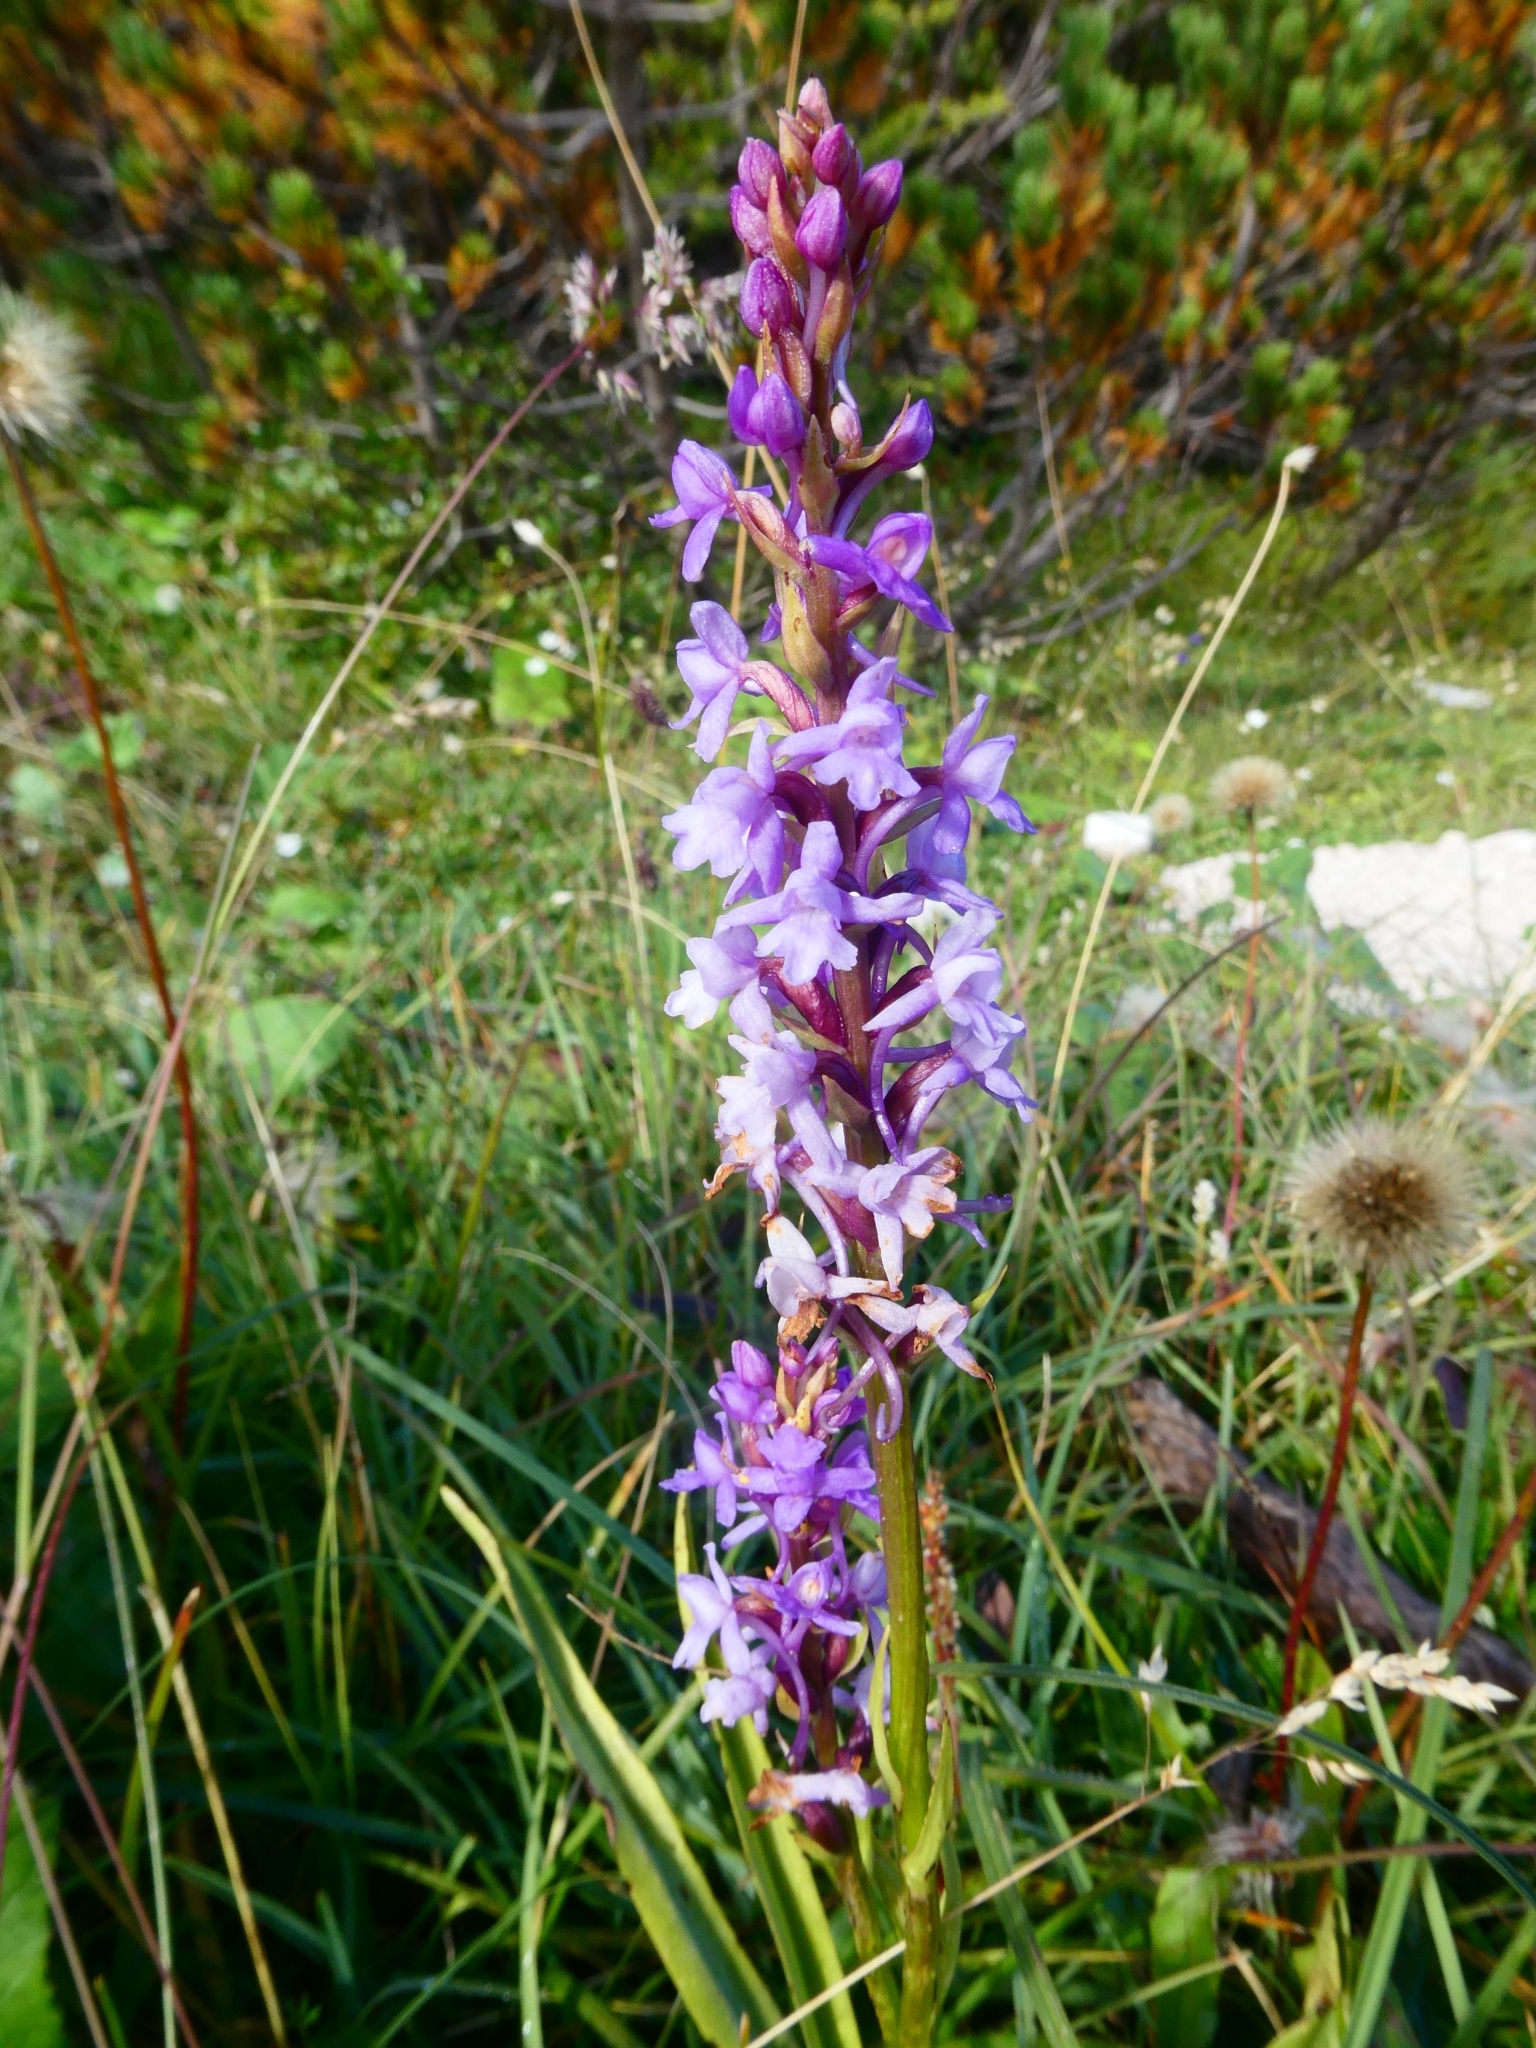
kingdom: Plantae
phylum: Tracheophyta
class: Liliopsida
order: Asparagales
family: Orchidaceae
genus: Gymnadenia
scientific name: Gymnadenia conopsea
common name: Fragrant orchid
